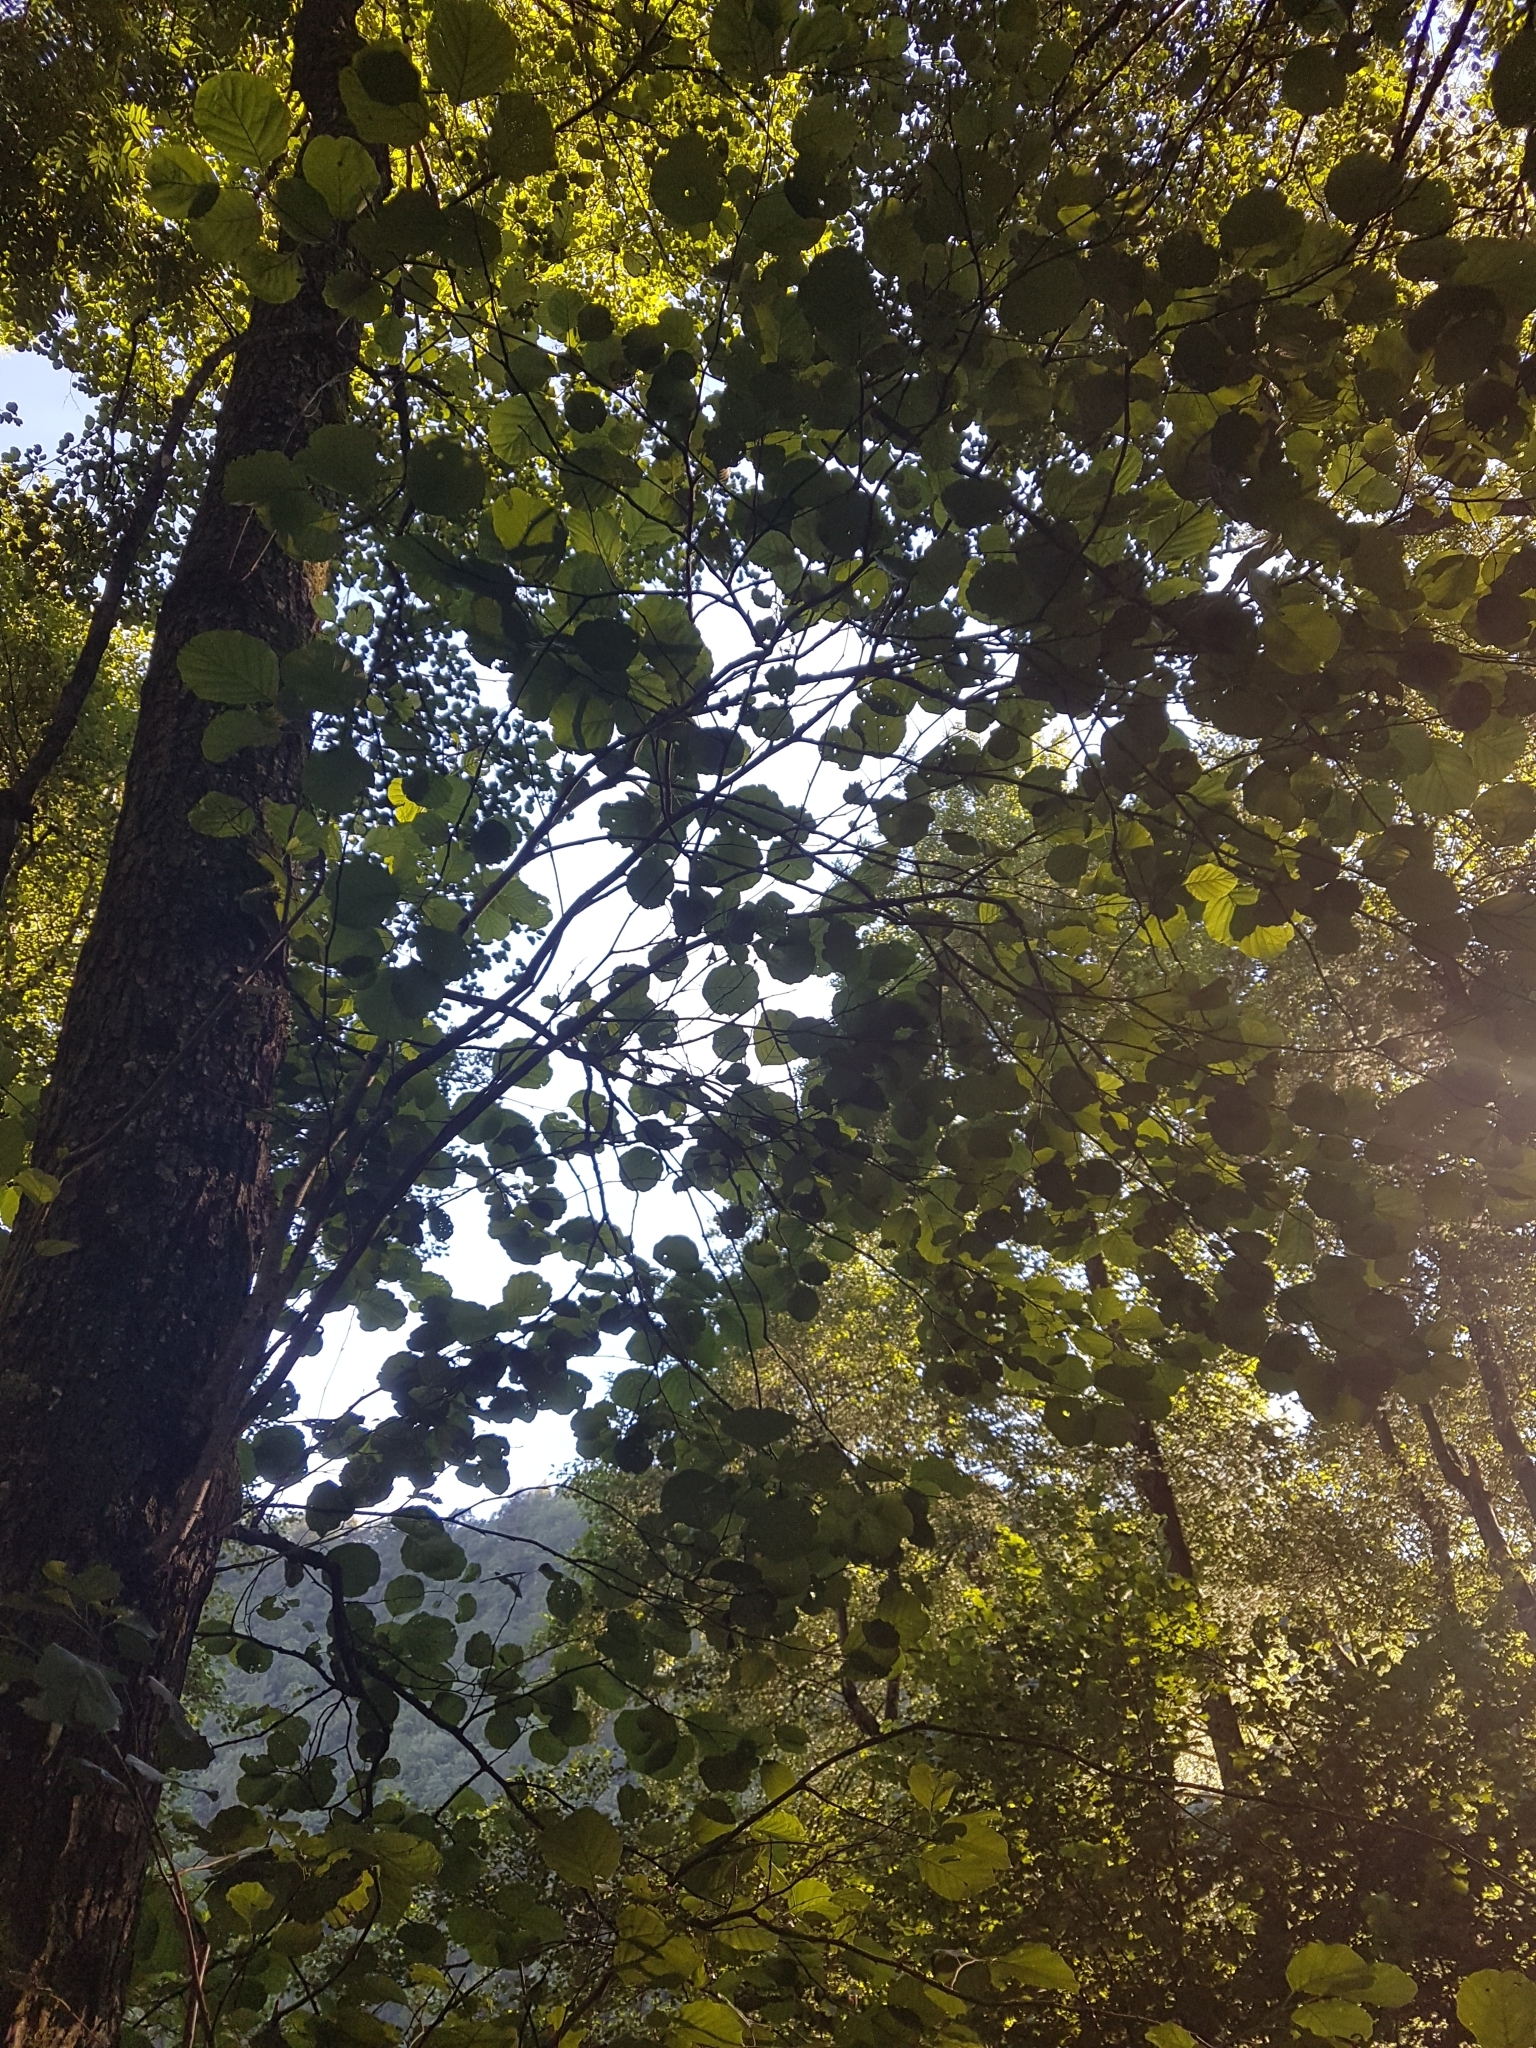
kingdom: Plantae
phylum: Tracheophyta
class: Magnoliopsida
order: Fagales
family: Betulaceae
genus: Corylus
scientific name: Corylus avellana
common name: European hazel
